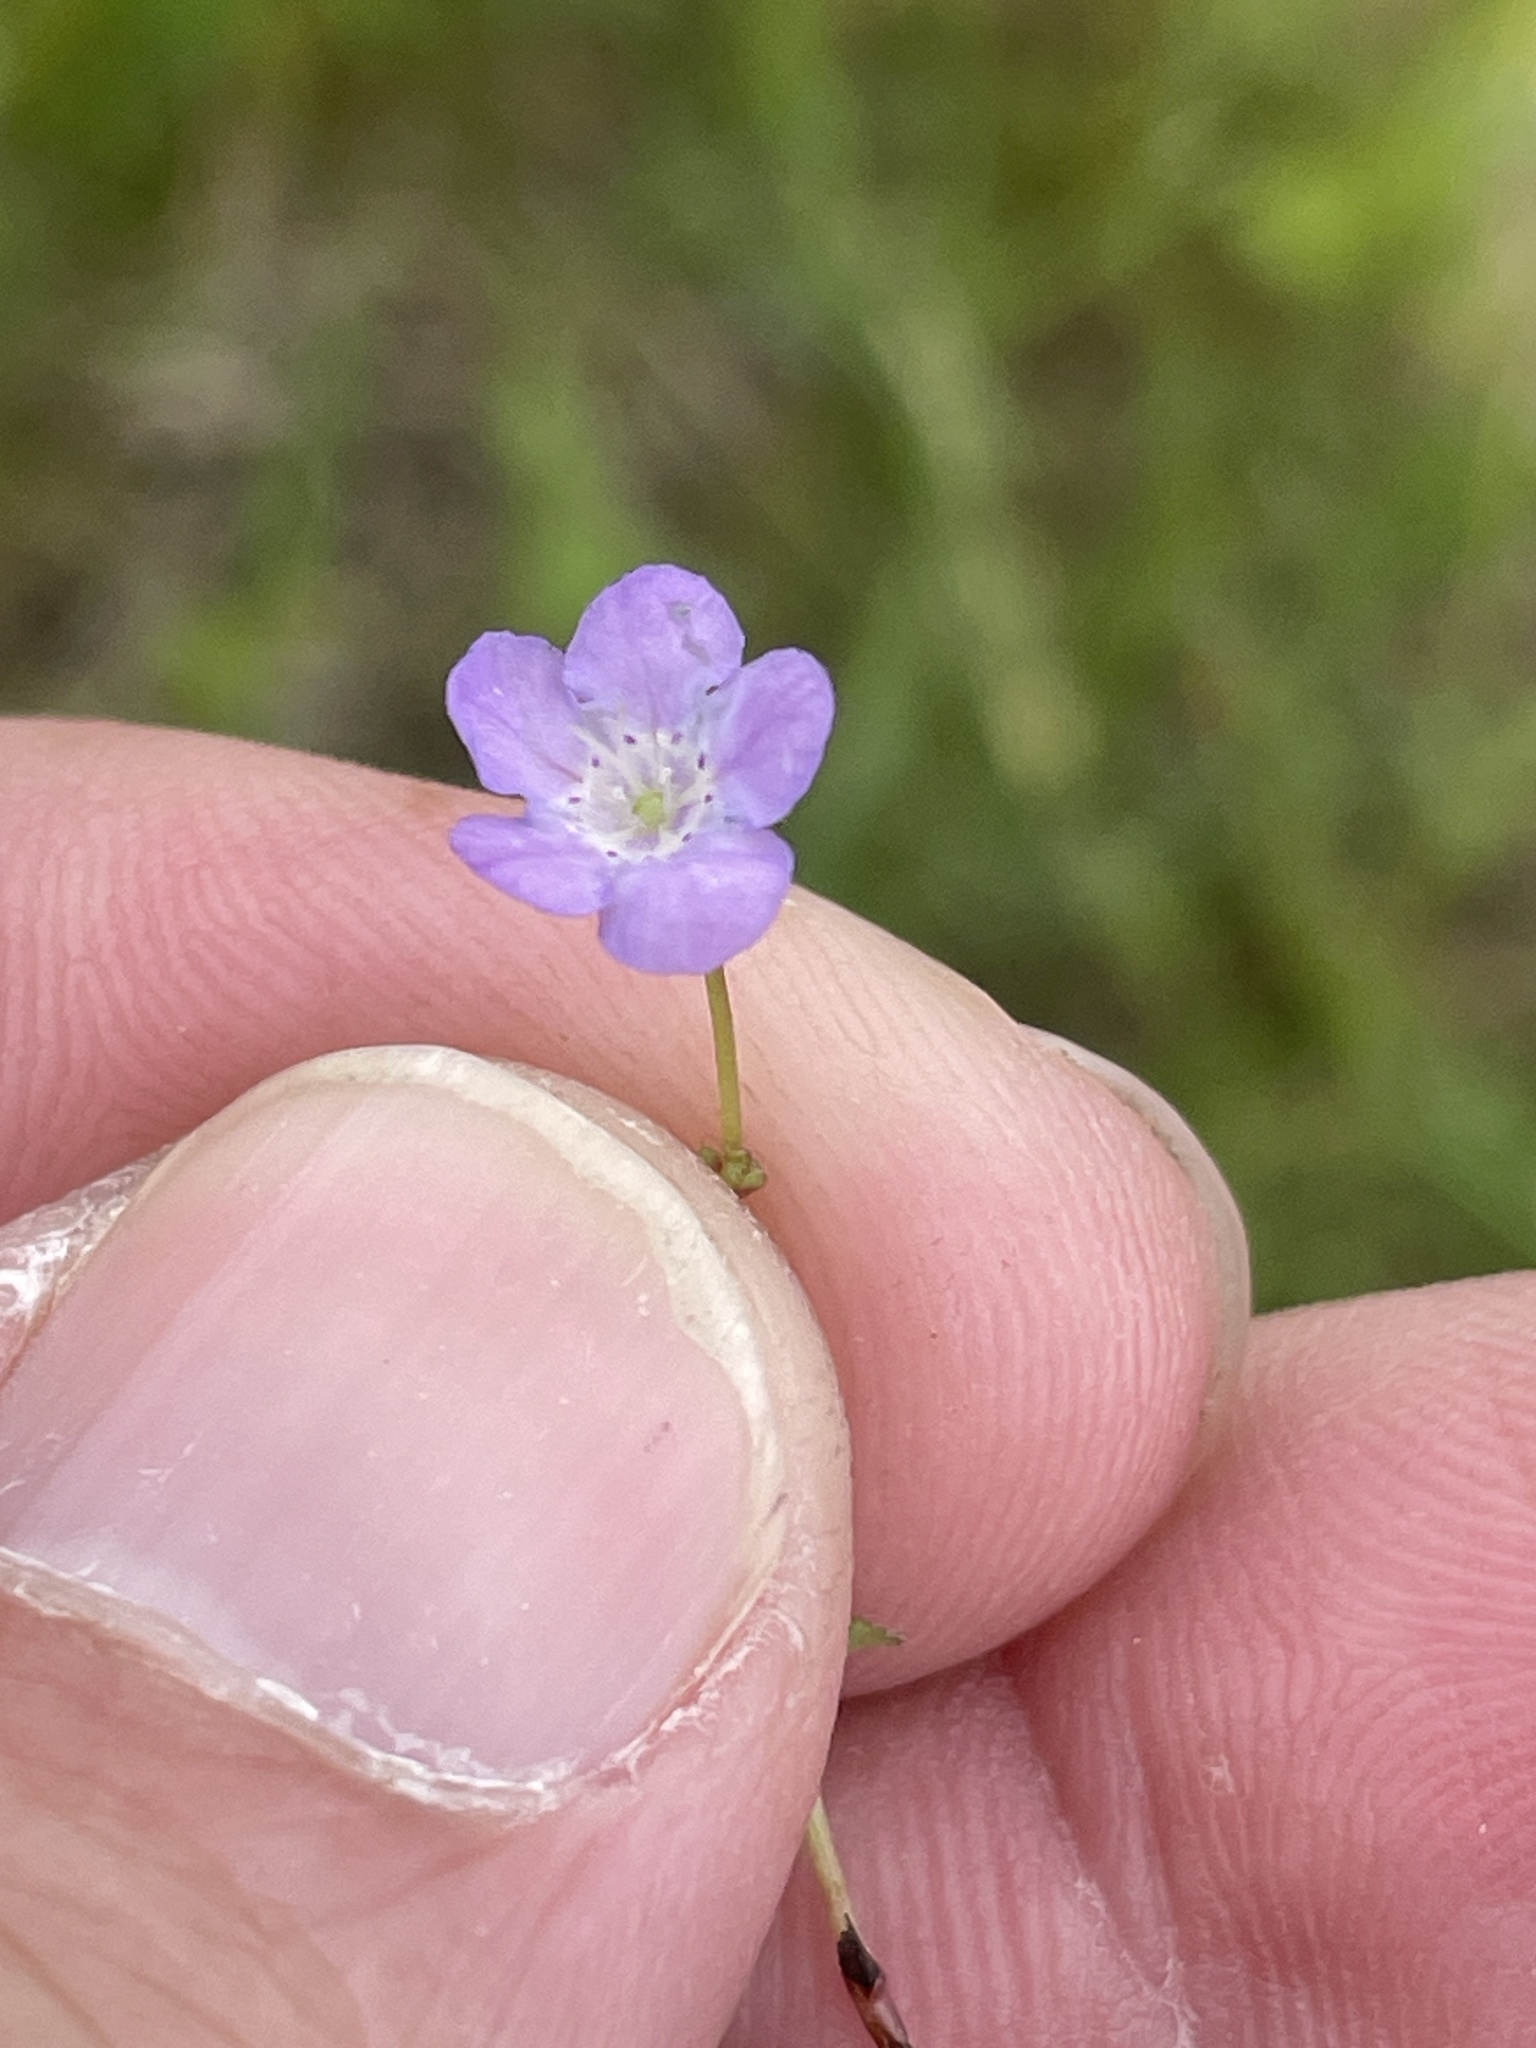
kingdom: Plantae
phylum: Tracheophyta
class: Magnoliopsida
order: Boraginales
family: Hydrophyllaceae
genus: Nemophila
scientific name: Nemophila phacelioides
